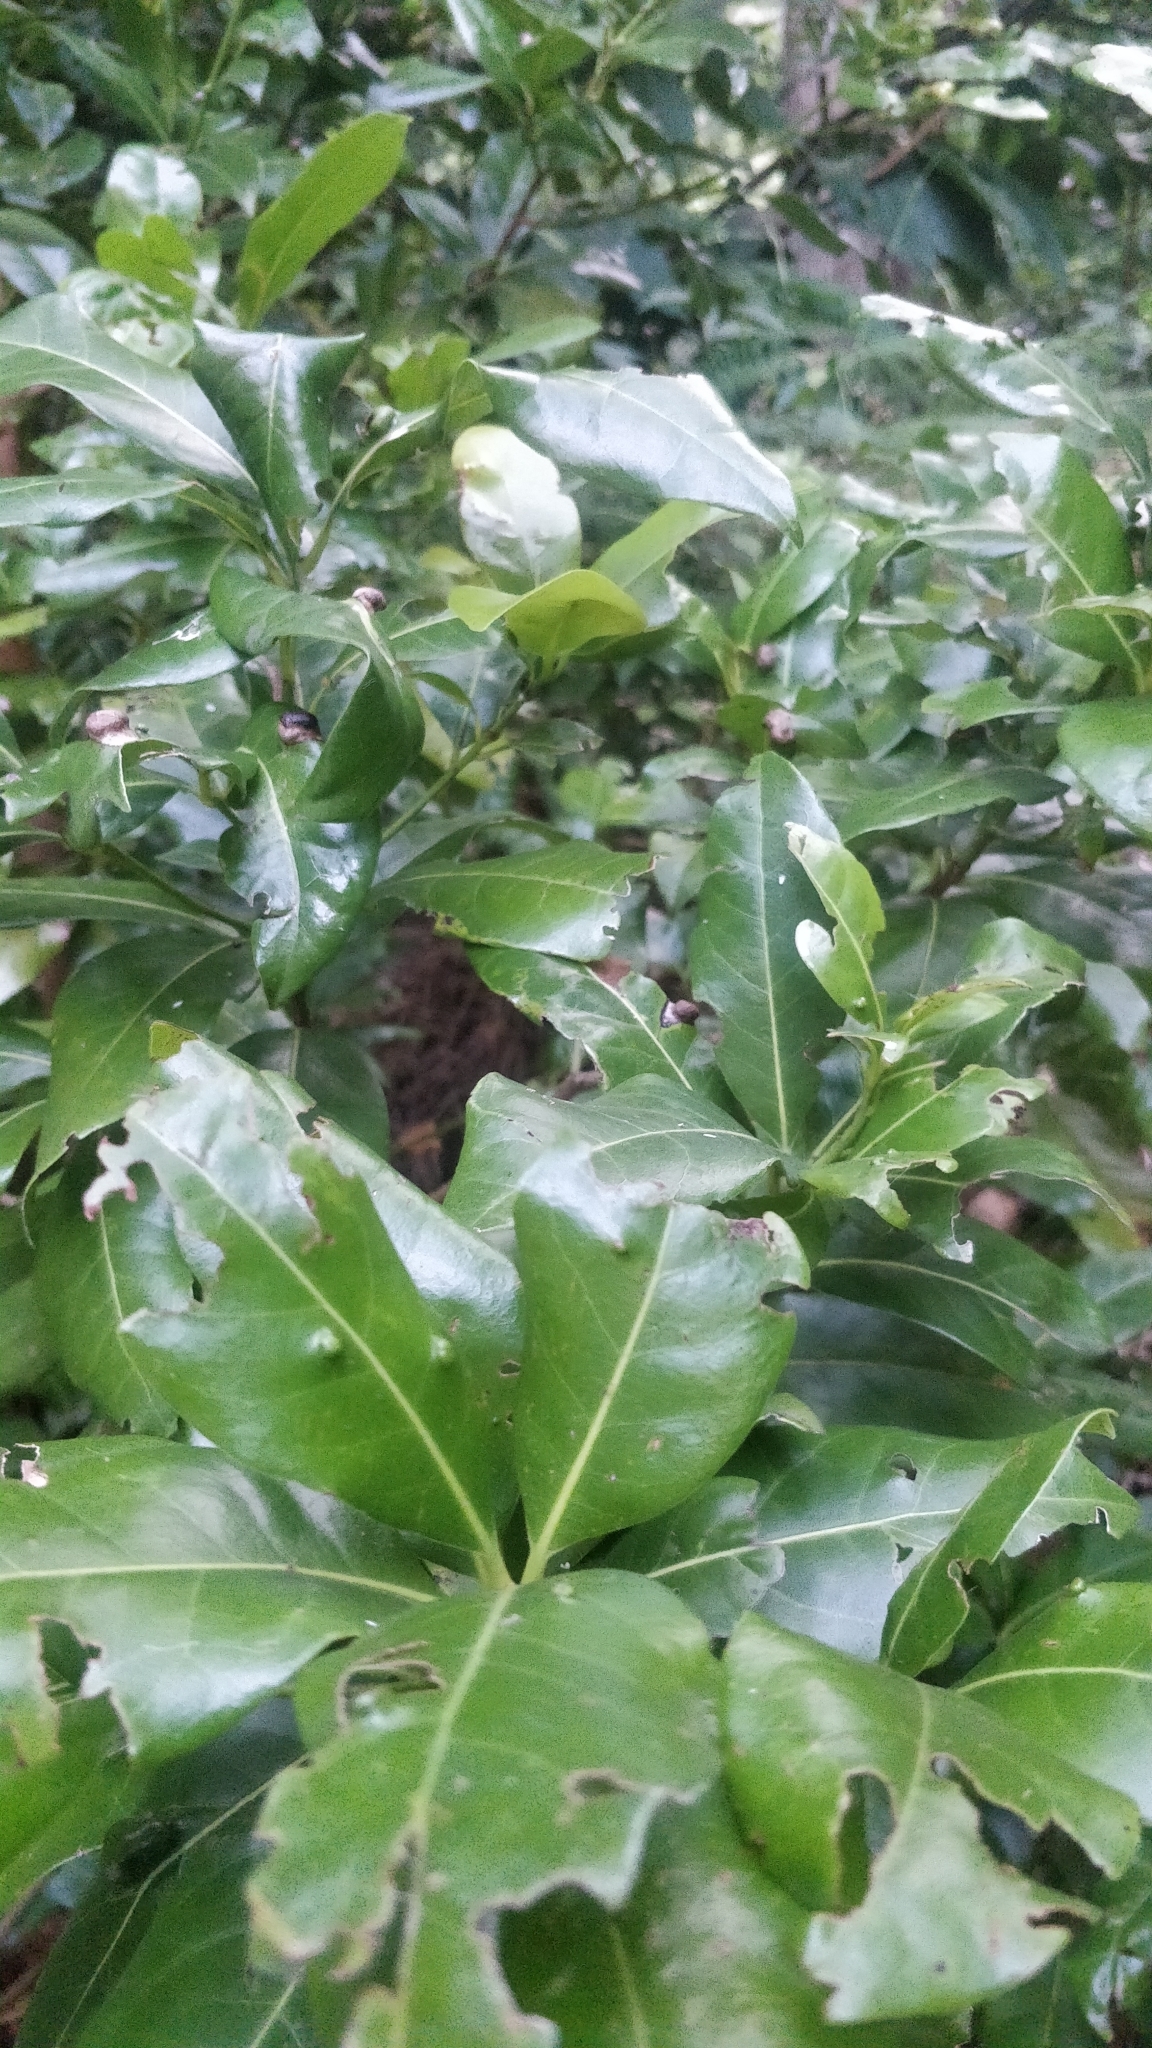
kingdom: Plantae
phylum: Tracheophyta
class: Magnoliopsida
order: Laurales
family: Lauraceae
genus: Apollonias
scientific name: Apollonias barbujana
